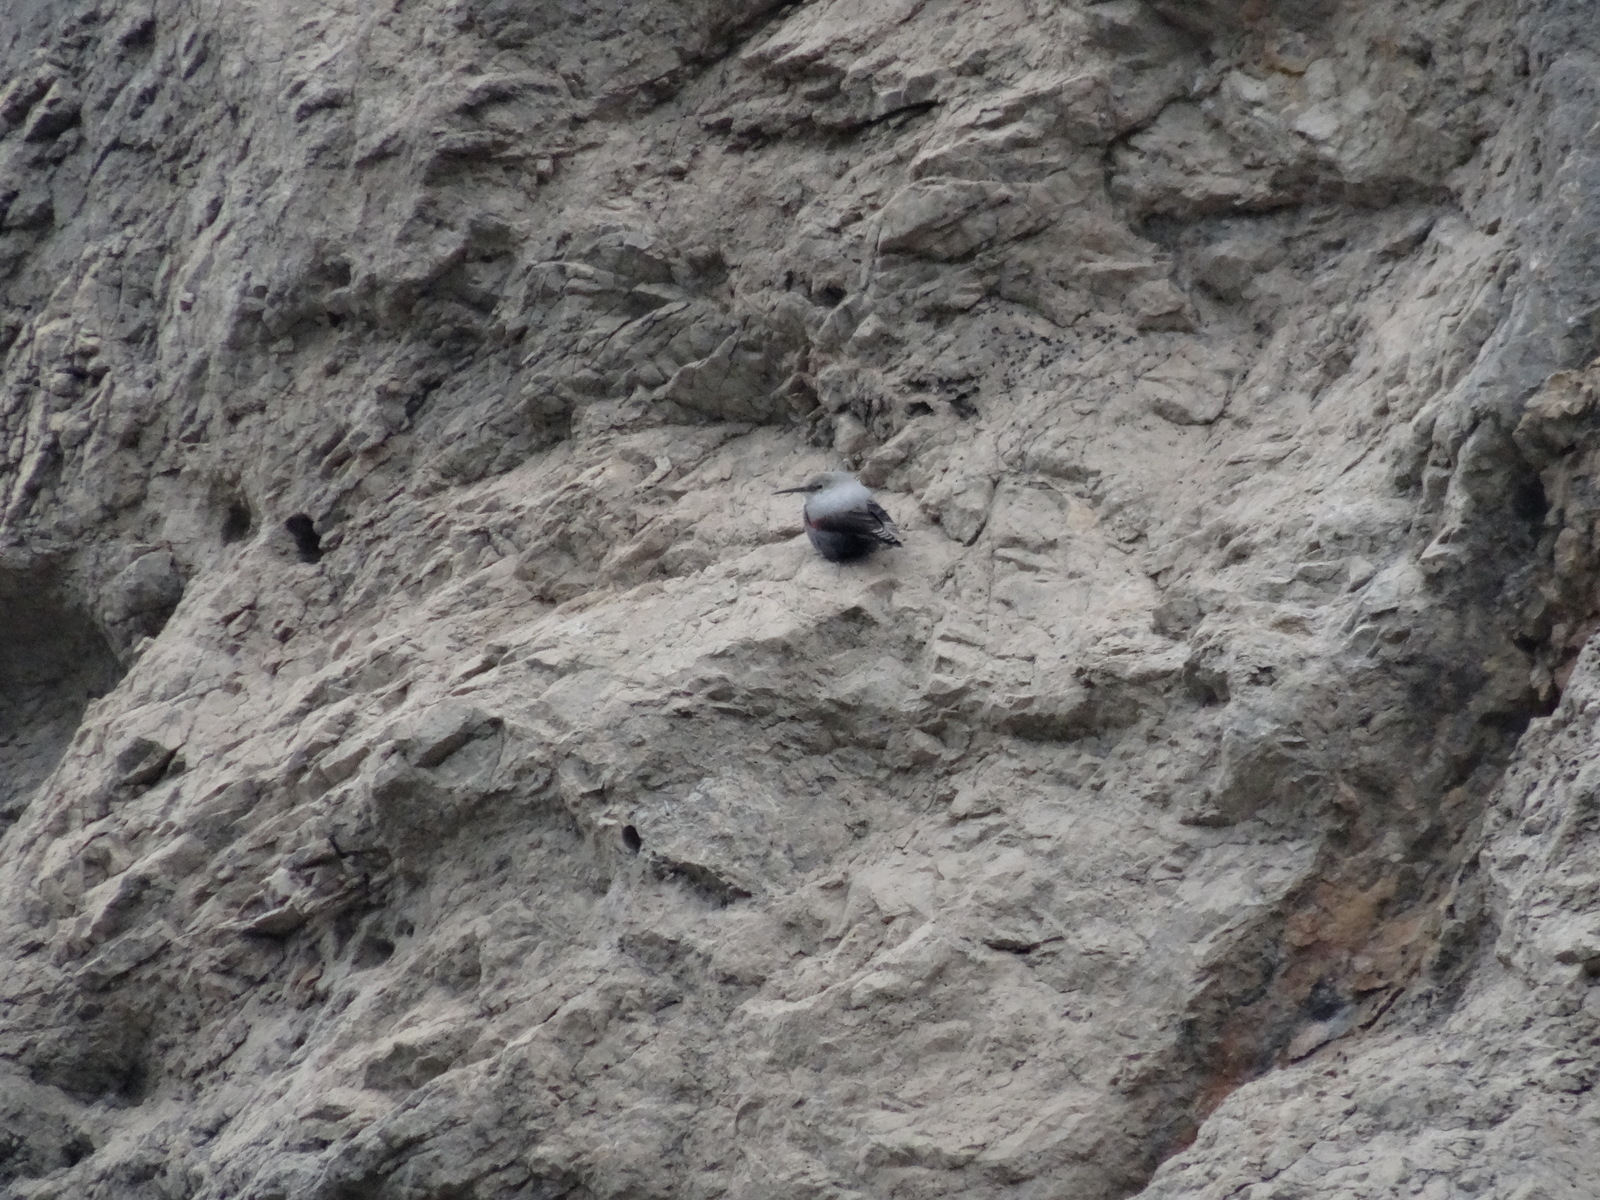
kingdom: Animalia
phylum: Chordata
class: Aves
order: Passeriformes
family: Tichodromidae
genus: Tichodroma
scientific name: Tichodroma muraria
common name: Wallcreeper
